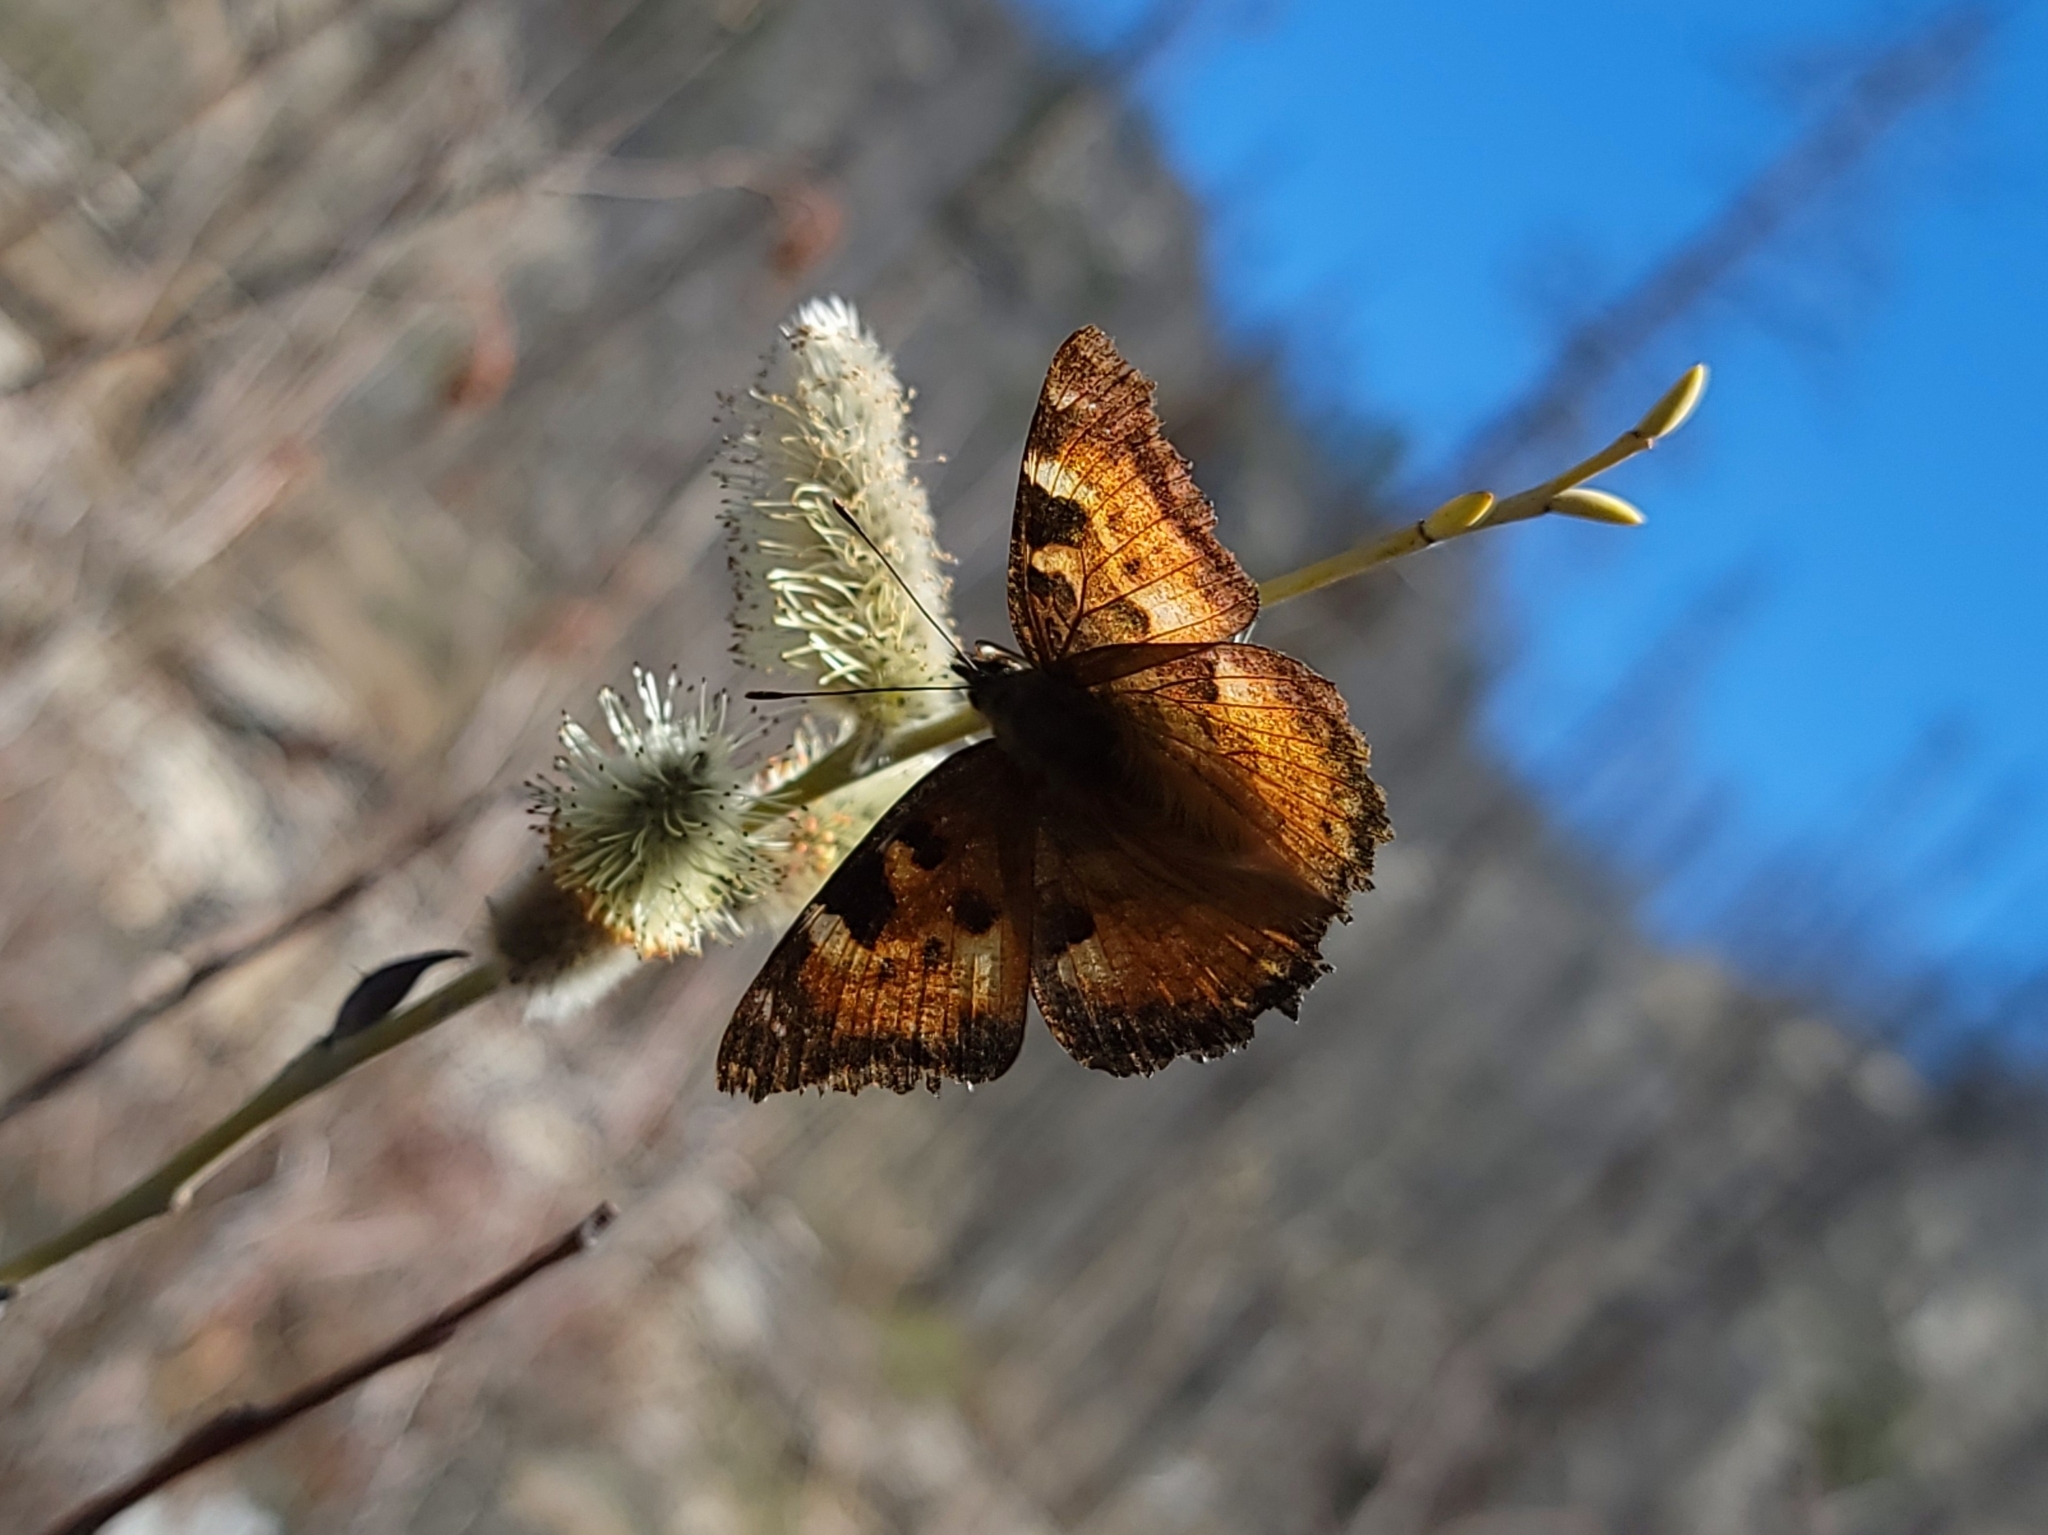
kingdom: Animalia
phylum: Arthropoda
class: Insecta
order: Lepidoptera
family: Nymphalidae
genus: Nymphalis
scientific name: Nymphalis californica
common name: California tortoiseshell
